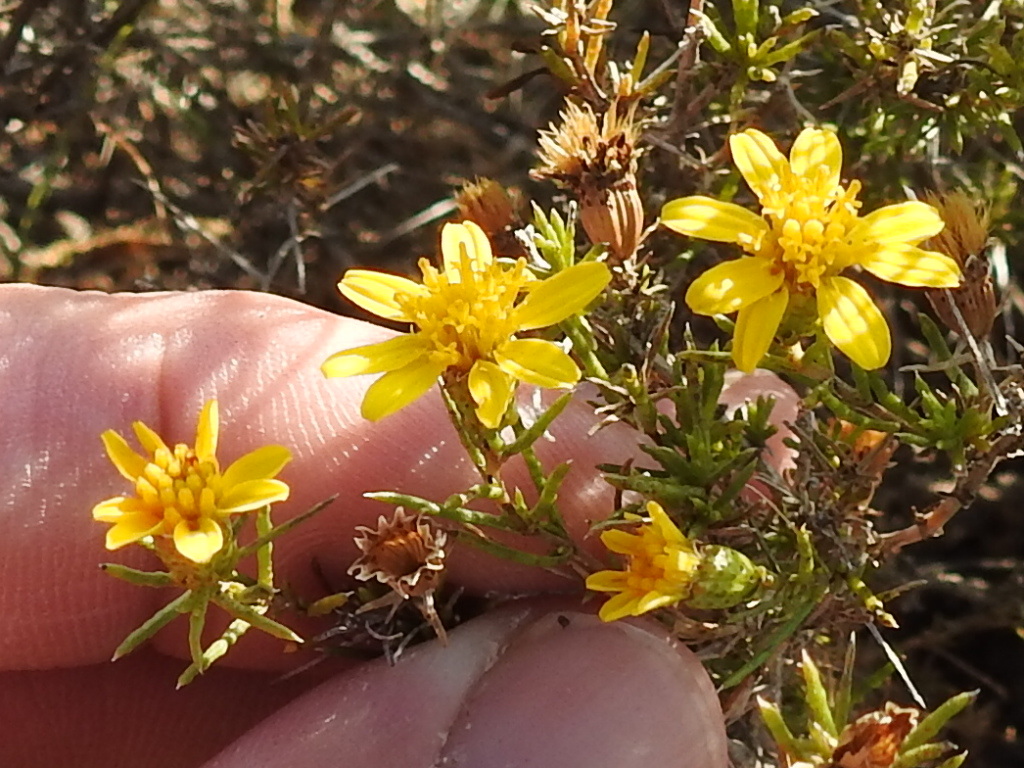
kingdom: Plantae
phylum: Tracheophyta
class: Magnoliopsida
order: Asterales
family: Asteraceae
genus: Thymophylla
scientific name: Thymophylla acerosa
